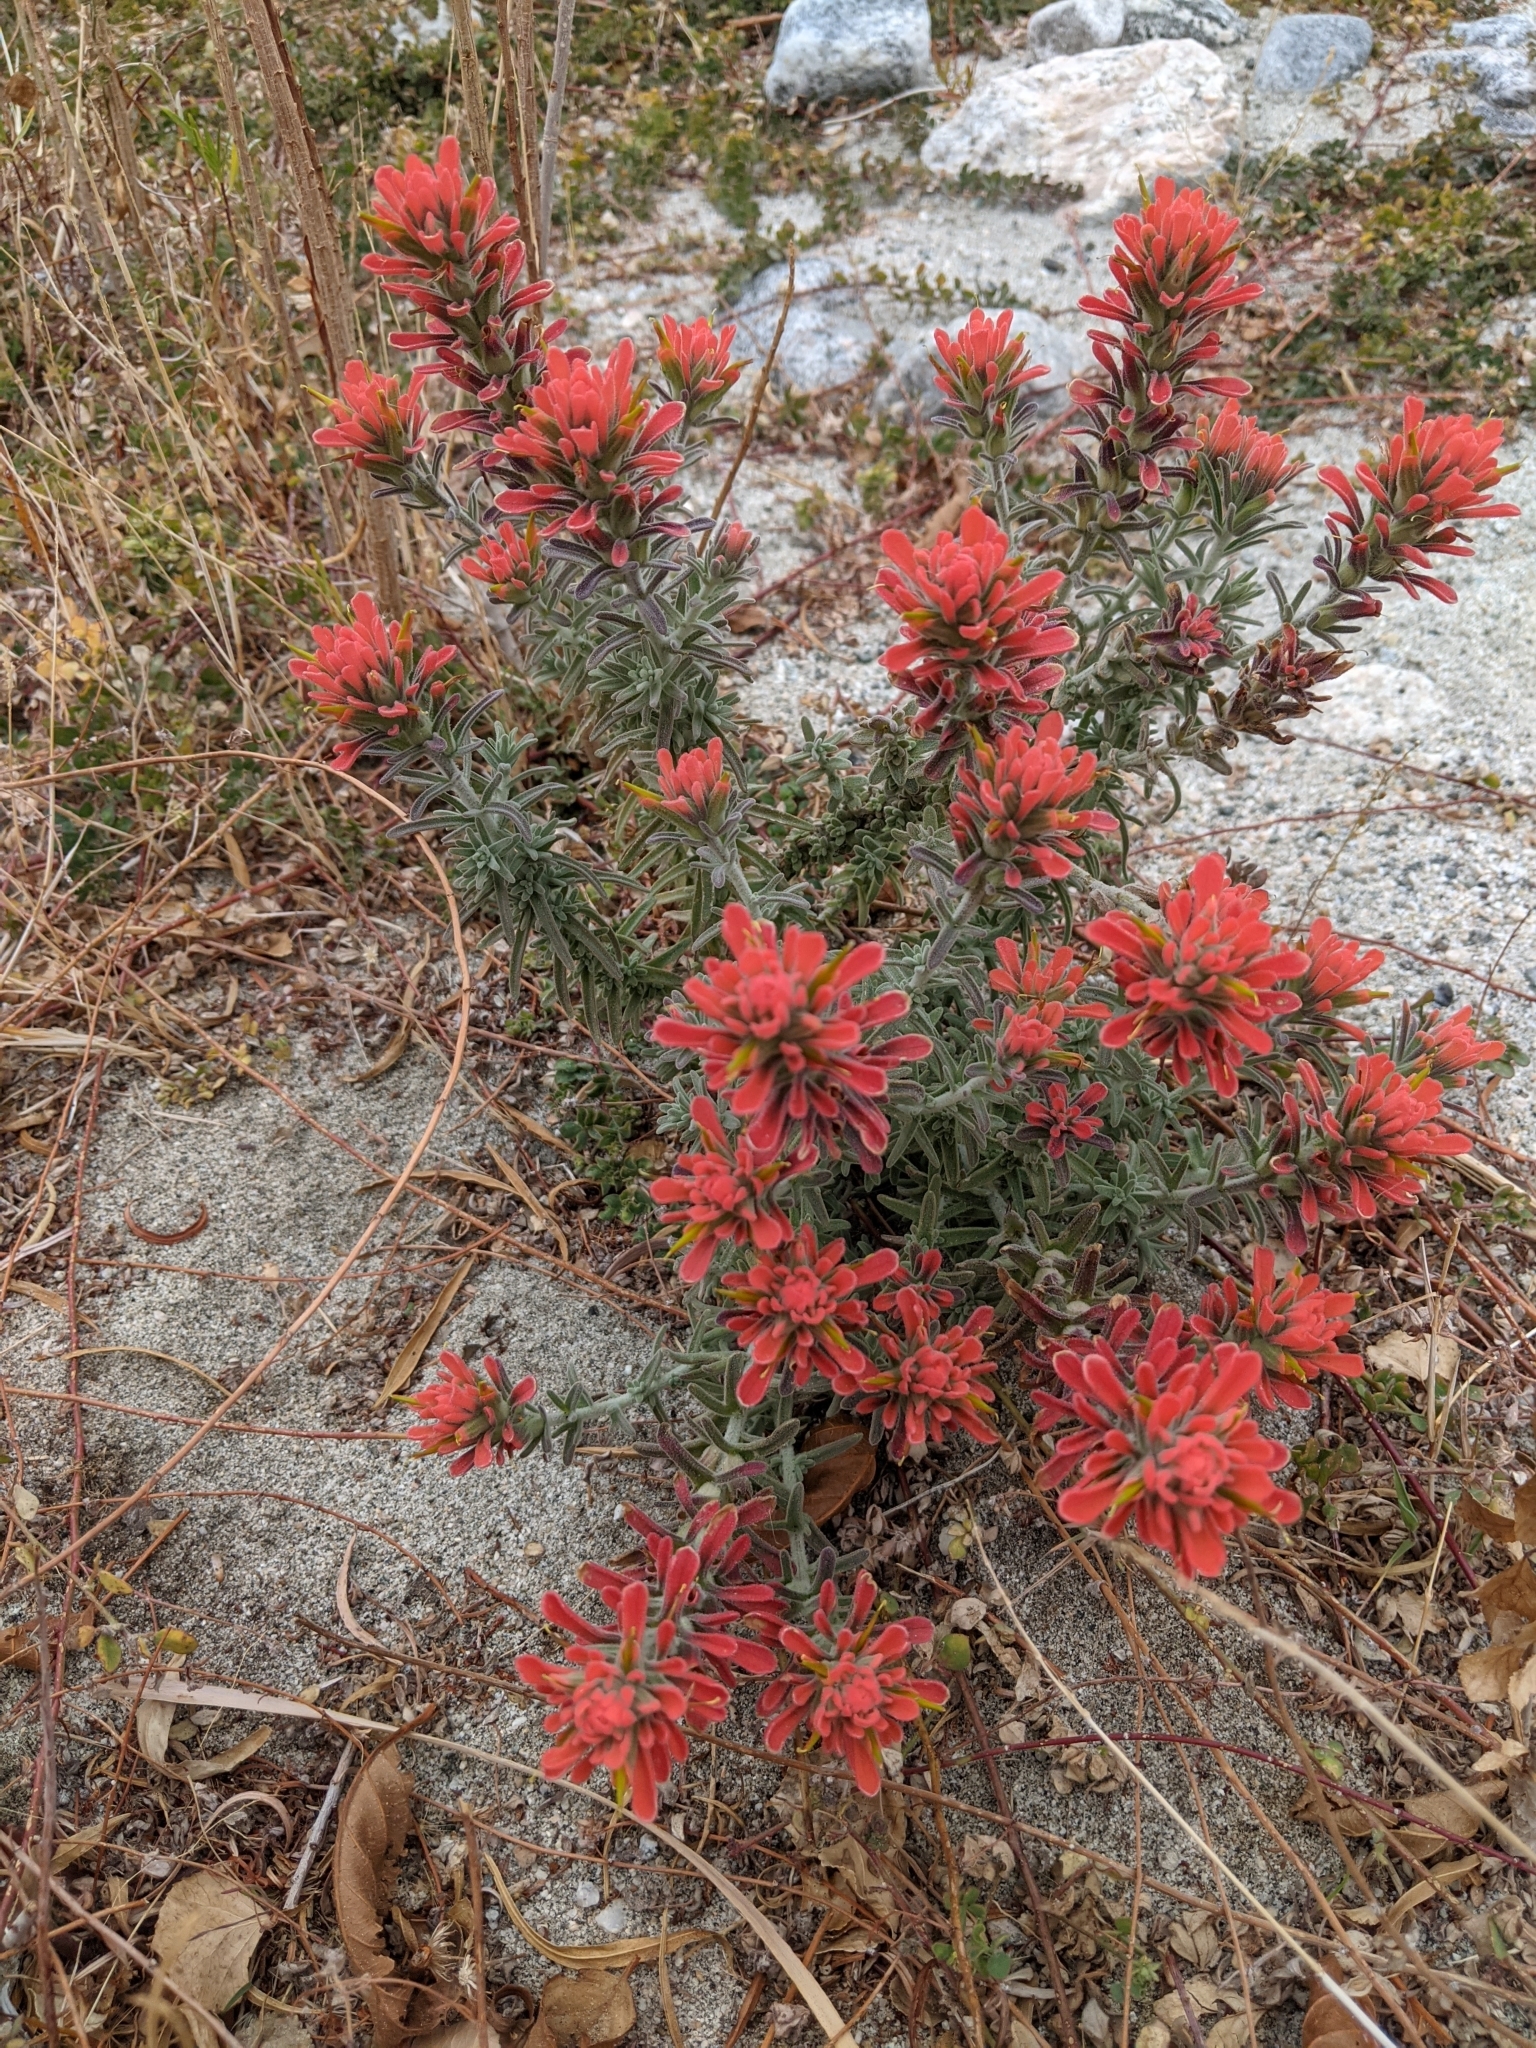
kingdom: Plantae
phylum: Tracheophyta
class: Magnoliopsida
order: Lamiales
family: Orobanchaceae
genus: Castilleja
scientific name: Castilleja foliolosa
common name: Woolly indian paintbrush
